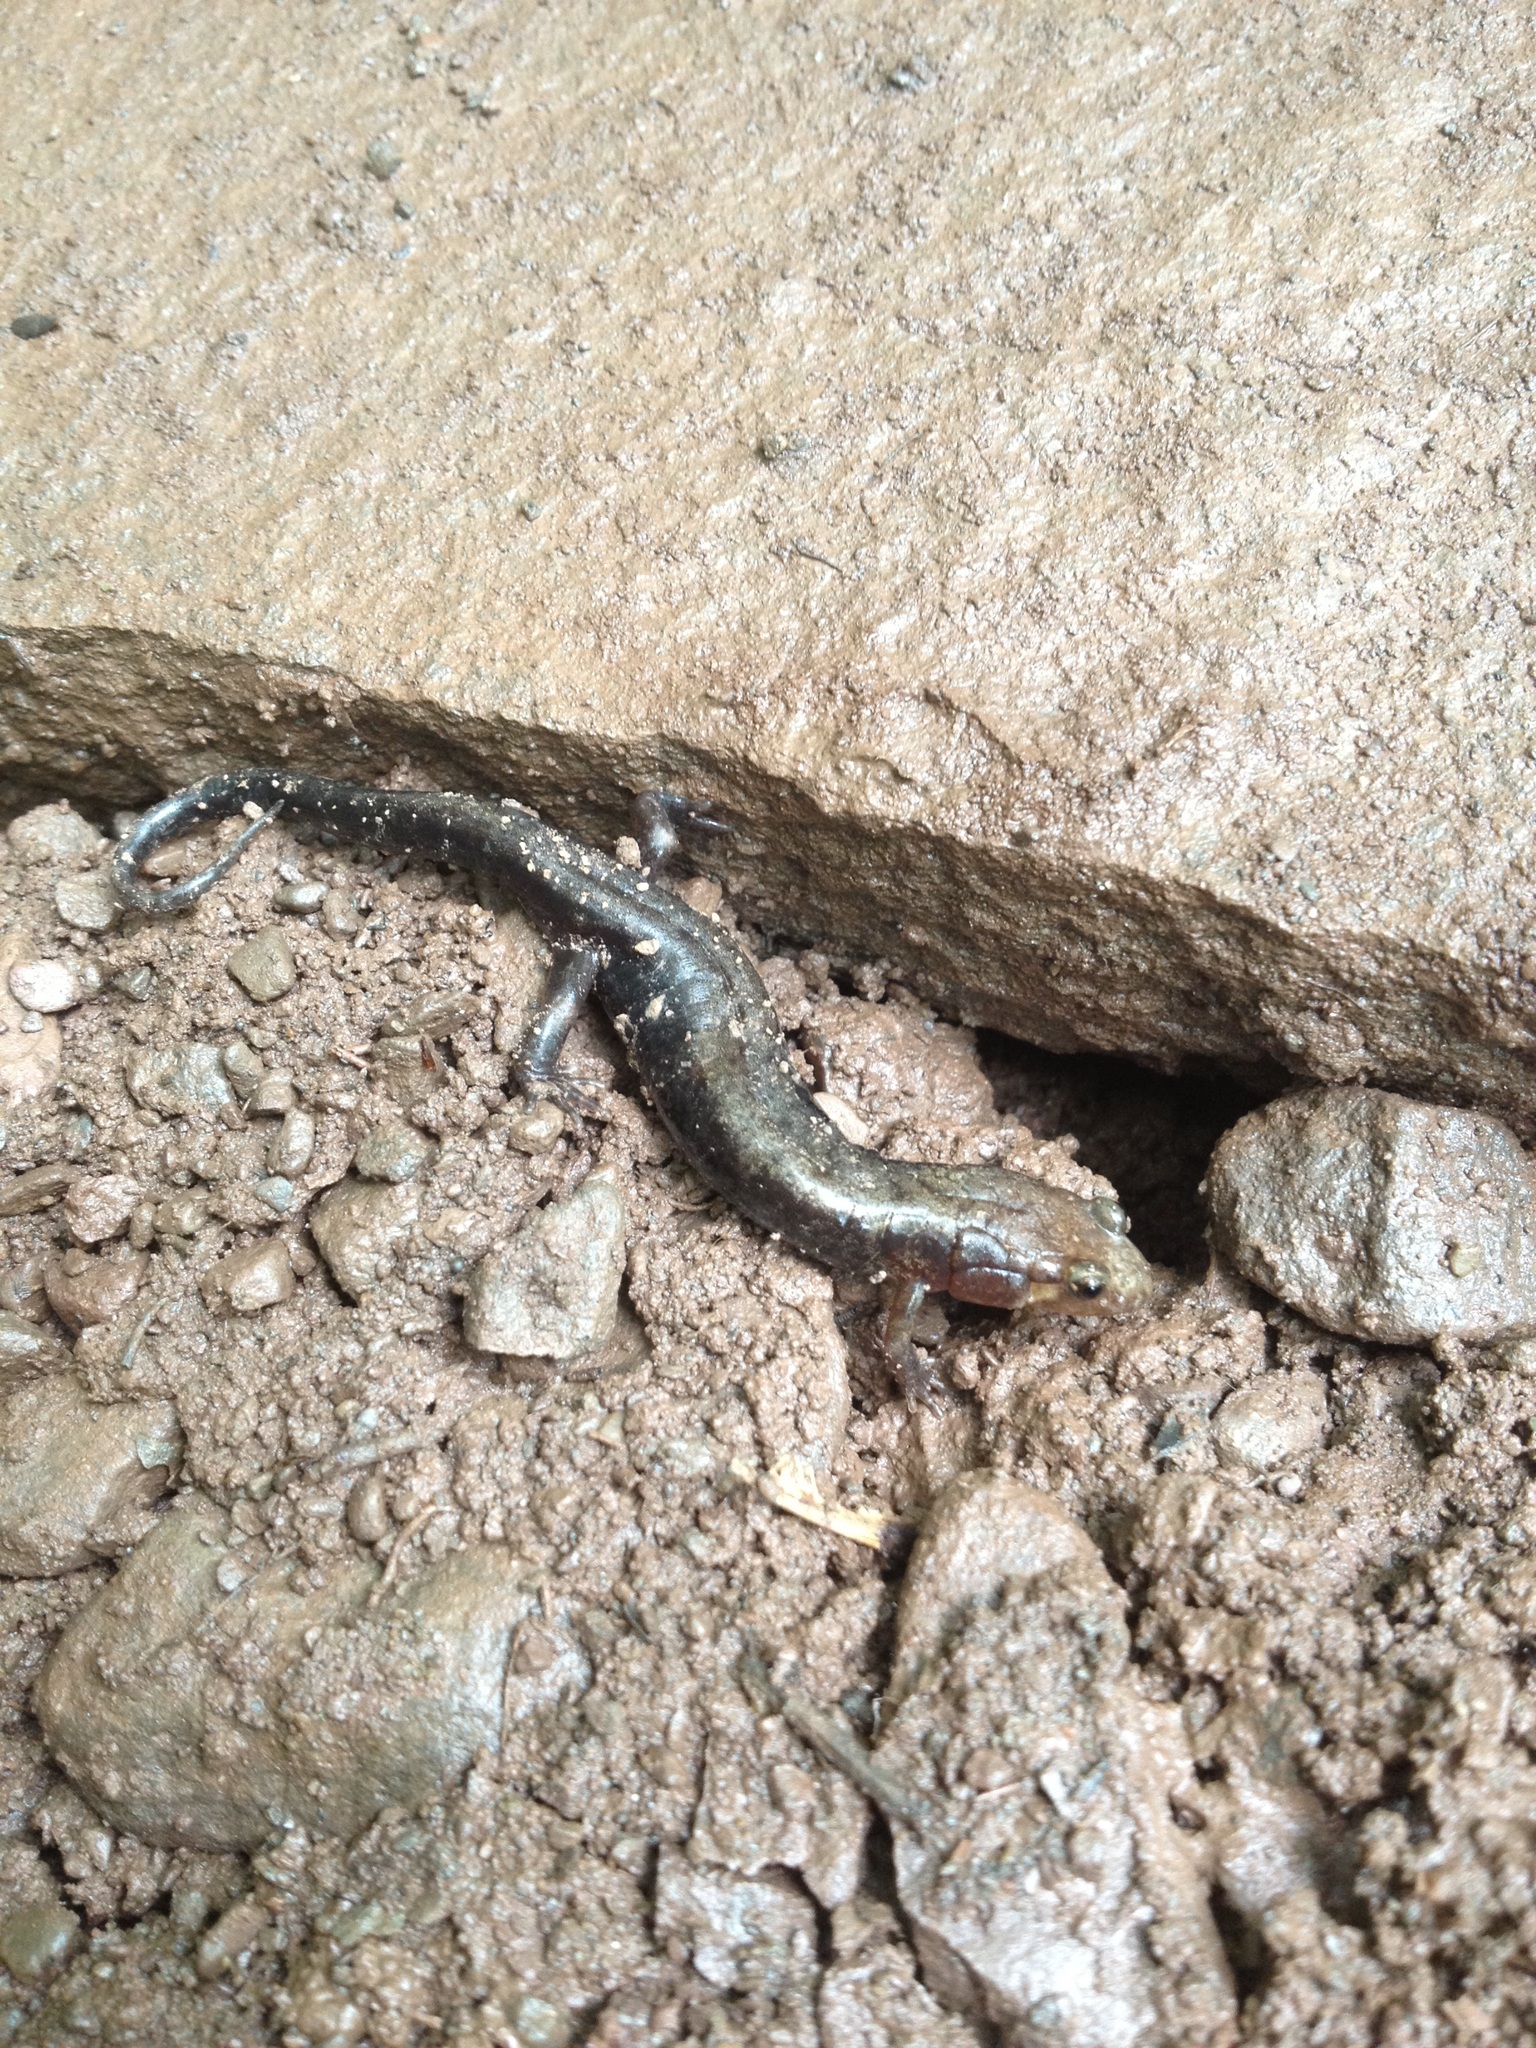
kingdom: Animalia
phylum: Chordata
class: Amphibia
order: Caudata
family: Plethodontidae
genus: Desmognathus
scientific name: Desmognathus ochrophaeus
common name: Allegheny mountain dusky salamander
